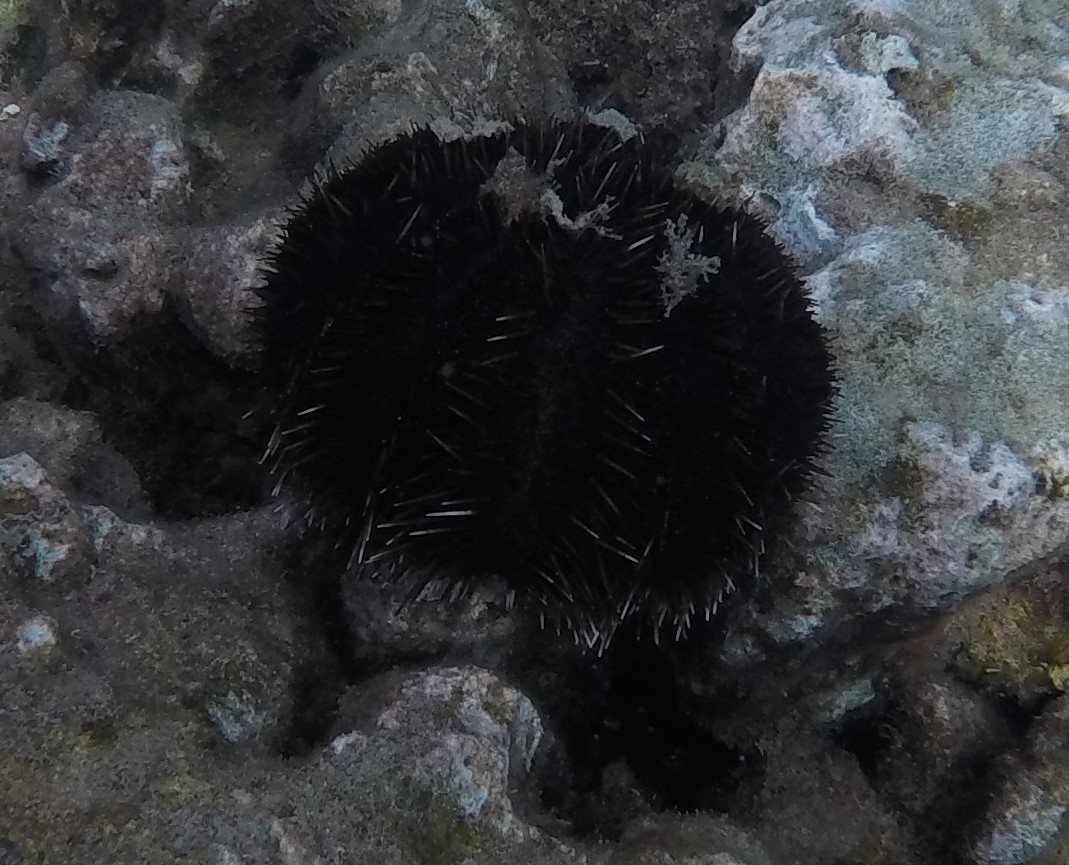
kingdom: Animalia
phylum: Echinodermata
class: Echinoidea
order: Camarodonta
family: Toxopneustidae
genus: Tripneustes
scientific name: Tripneustes gratilla
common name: Bischofsmützenseeigel
